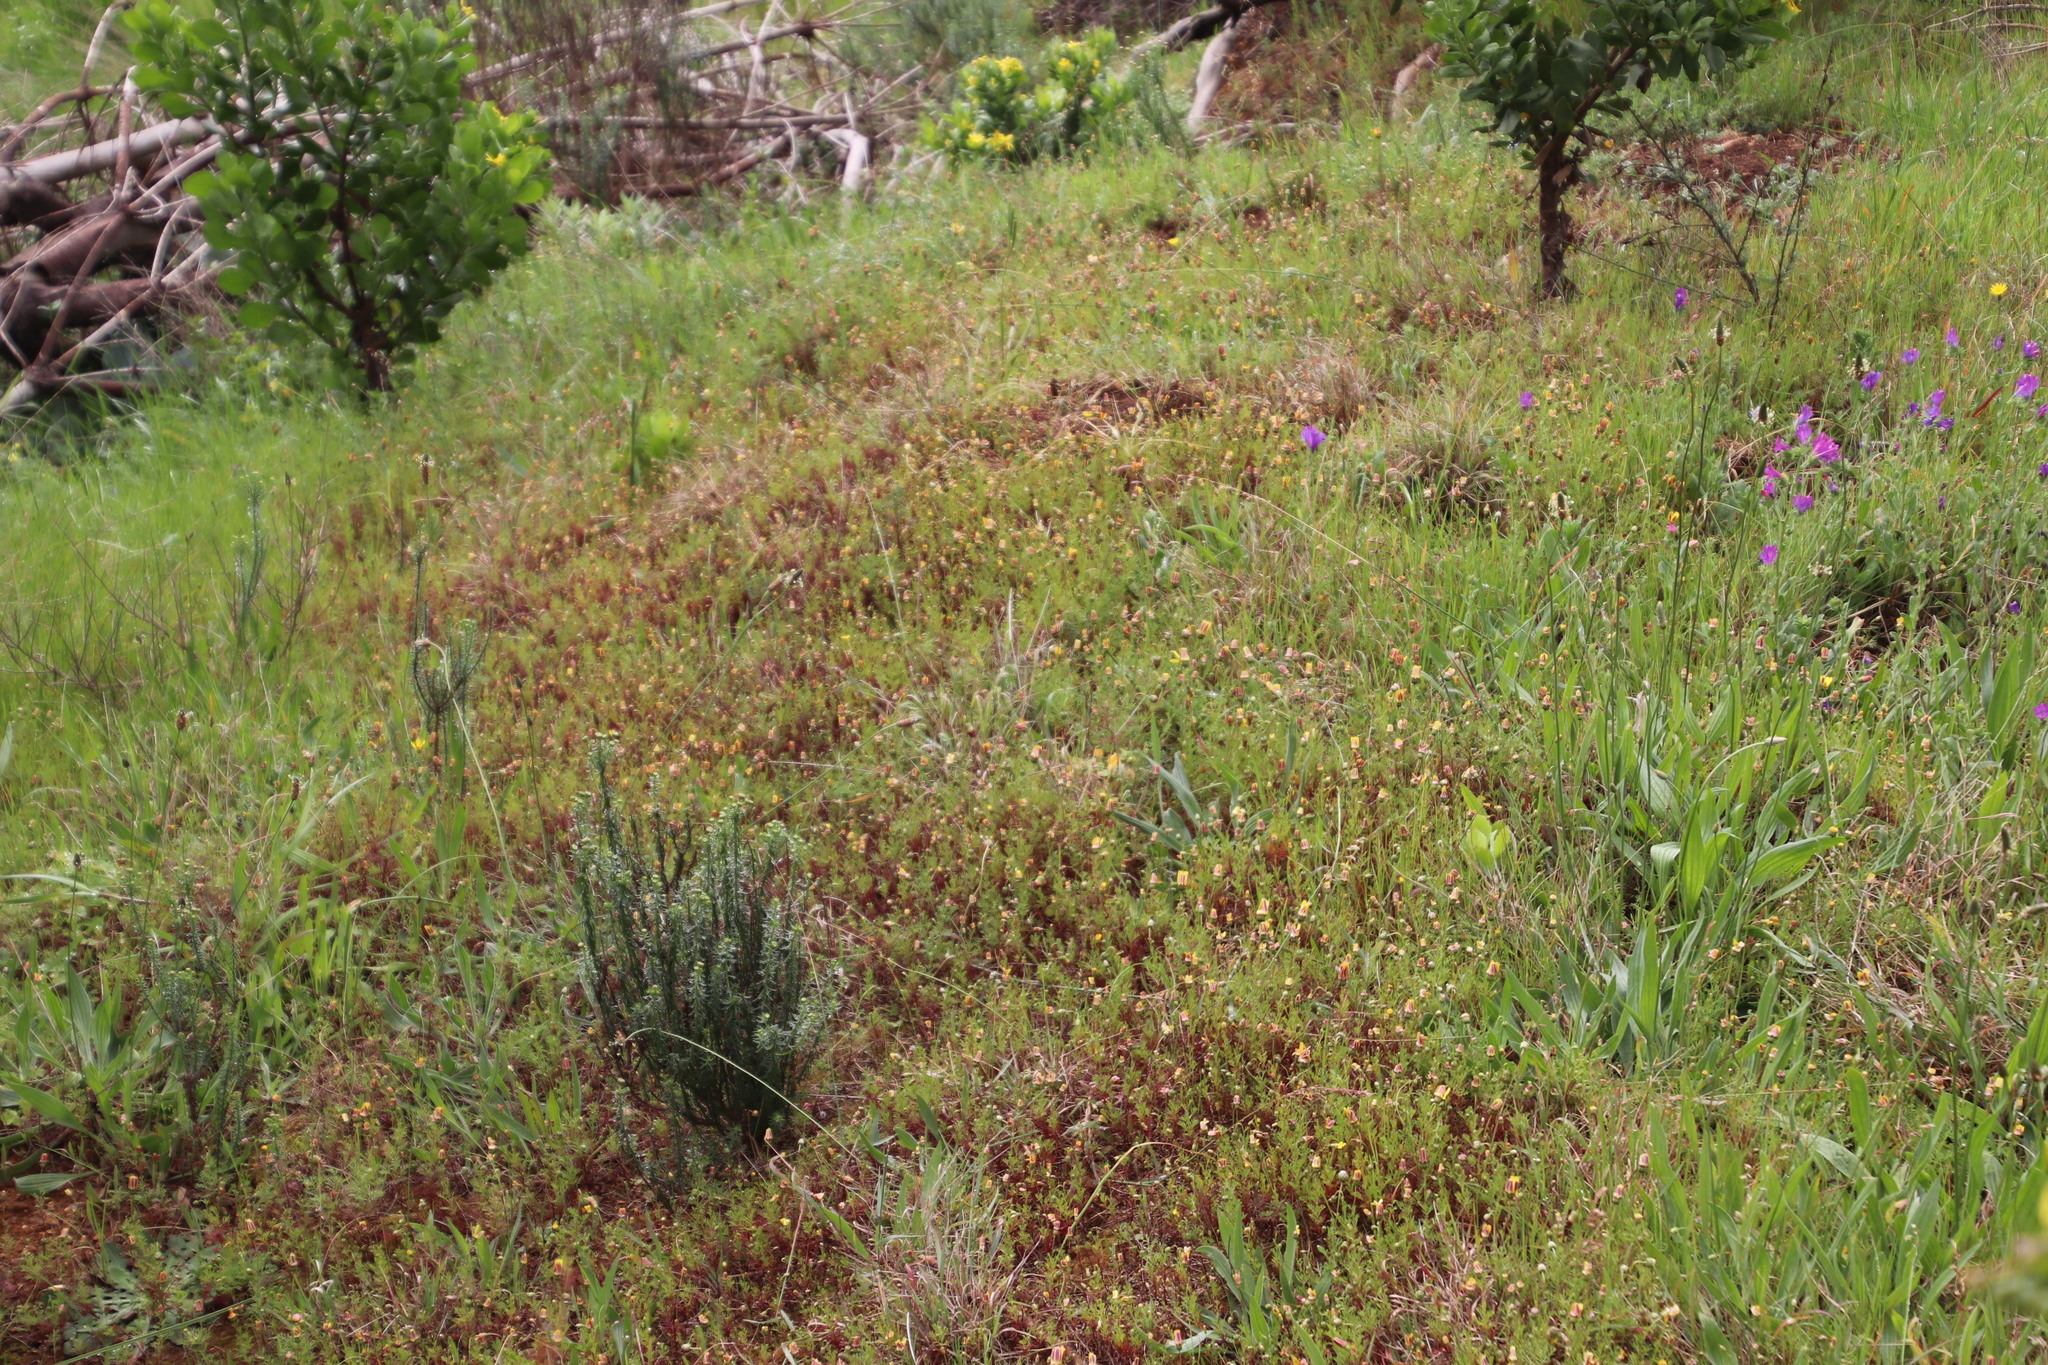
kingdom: Plantae
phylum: Tracheophyta
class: Magnoliopsida
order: Asterales
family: Asteraceae
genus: Ursinia
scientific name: Ursinia anthemoides
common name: Ursinia
